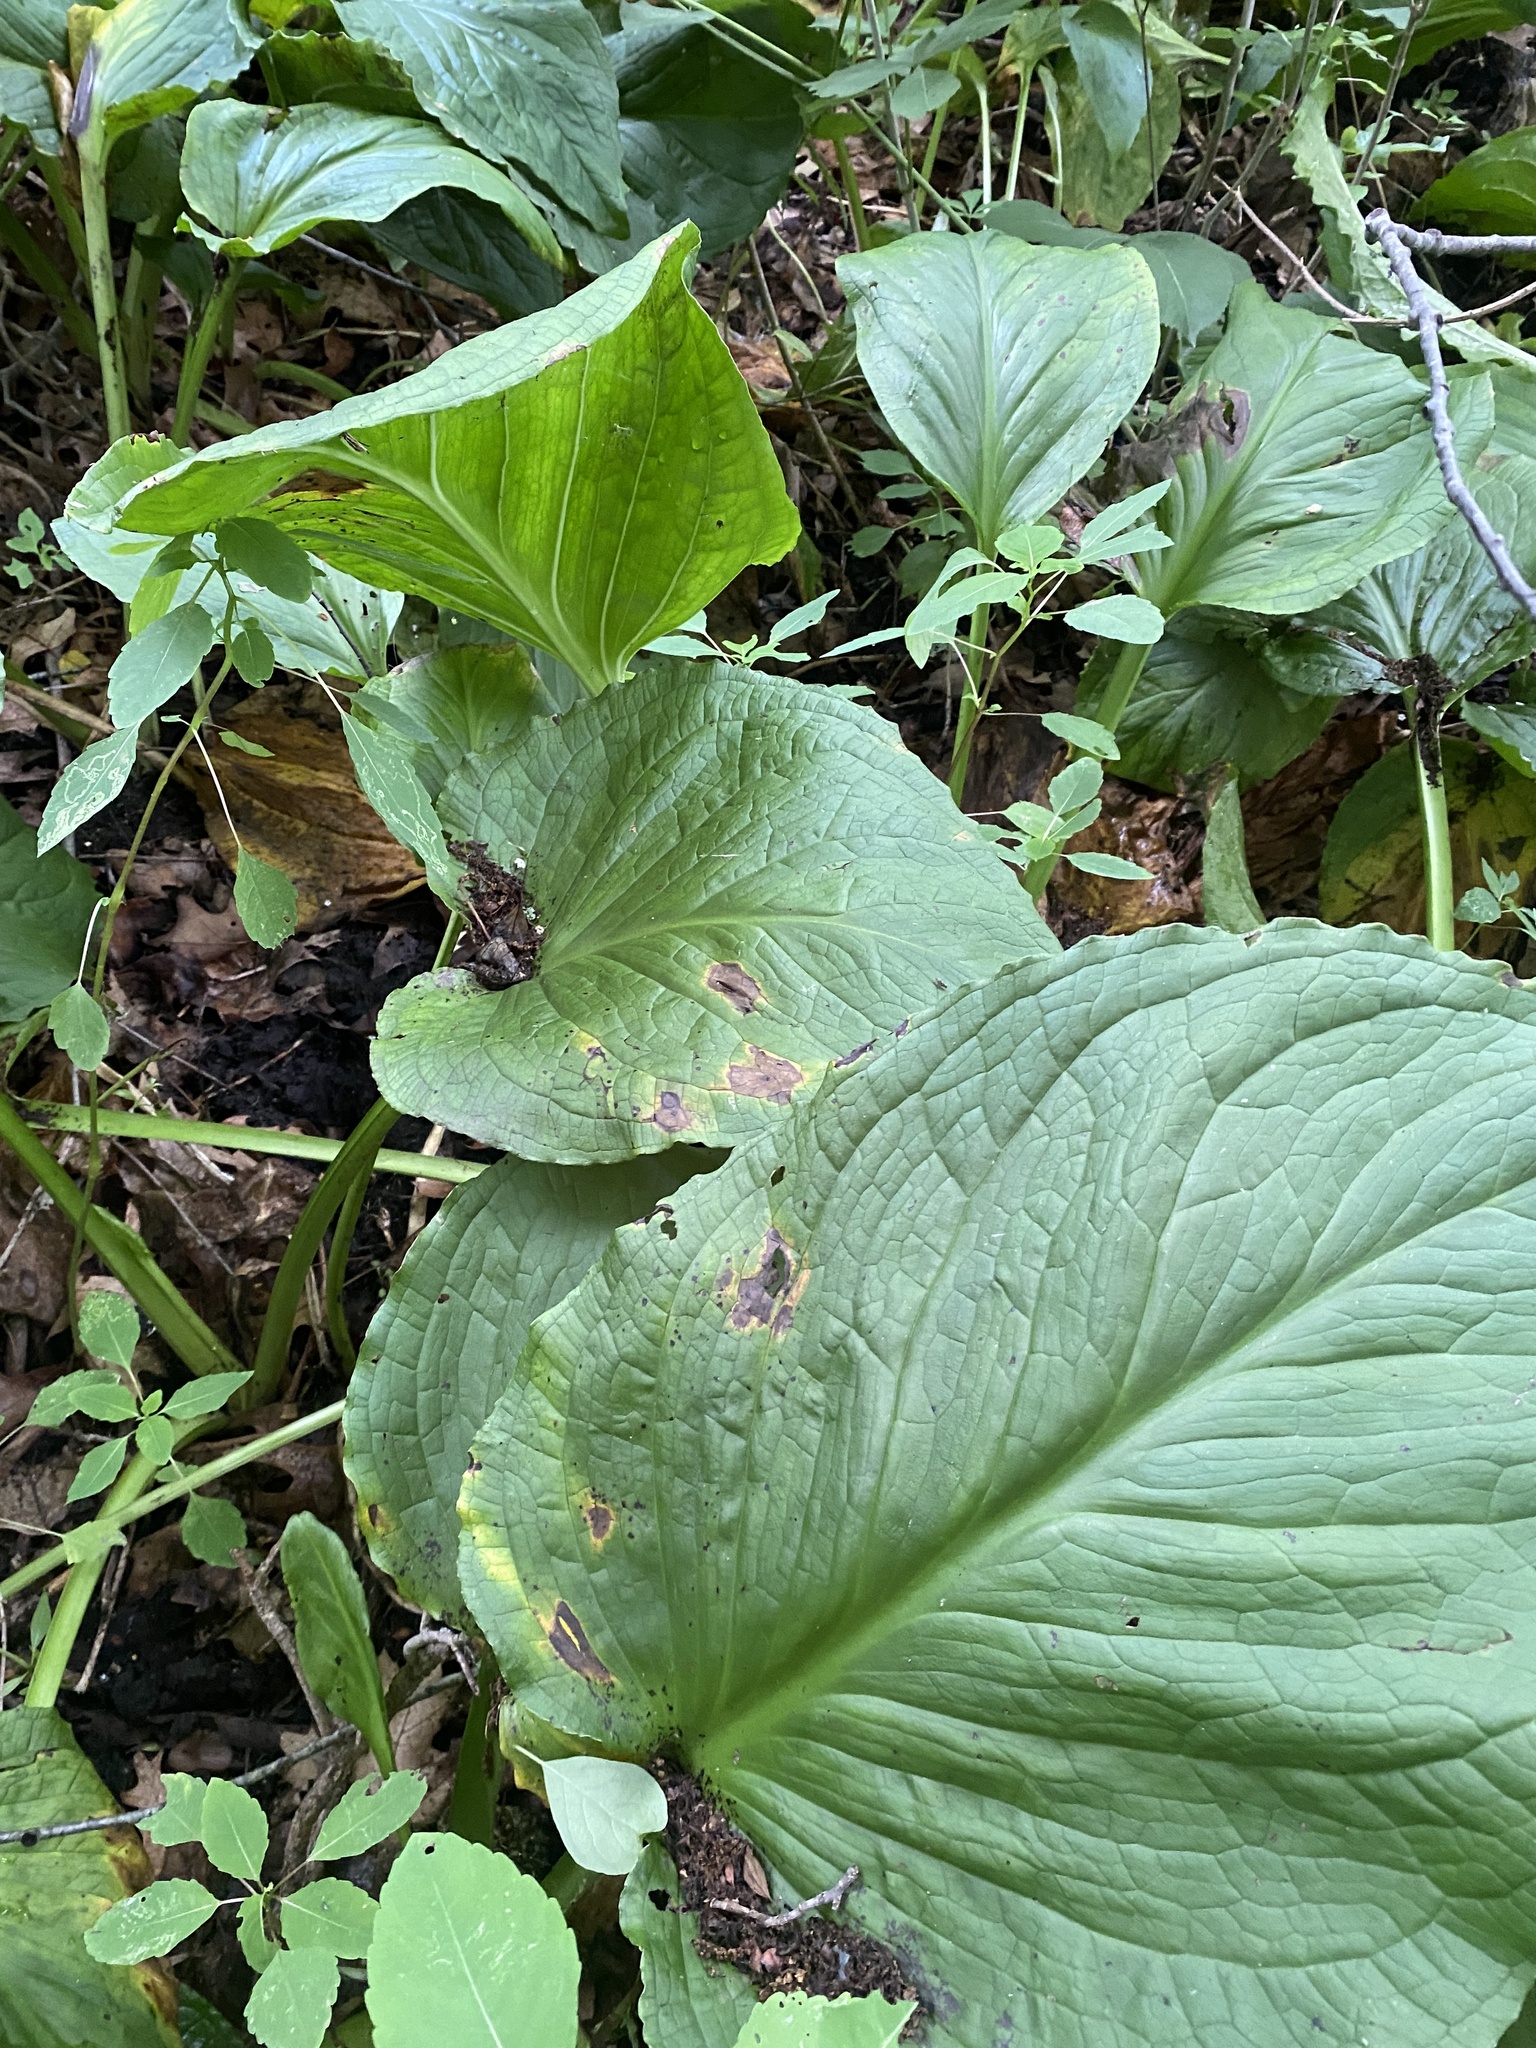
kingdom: Plantae
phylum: Tracheophyta
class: Liliopsida
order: Alismatales
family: Araceae
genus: Symplocarpus
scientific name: Symplocarpus foetidus
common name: Eastern skunk cabbage
